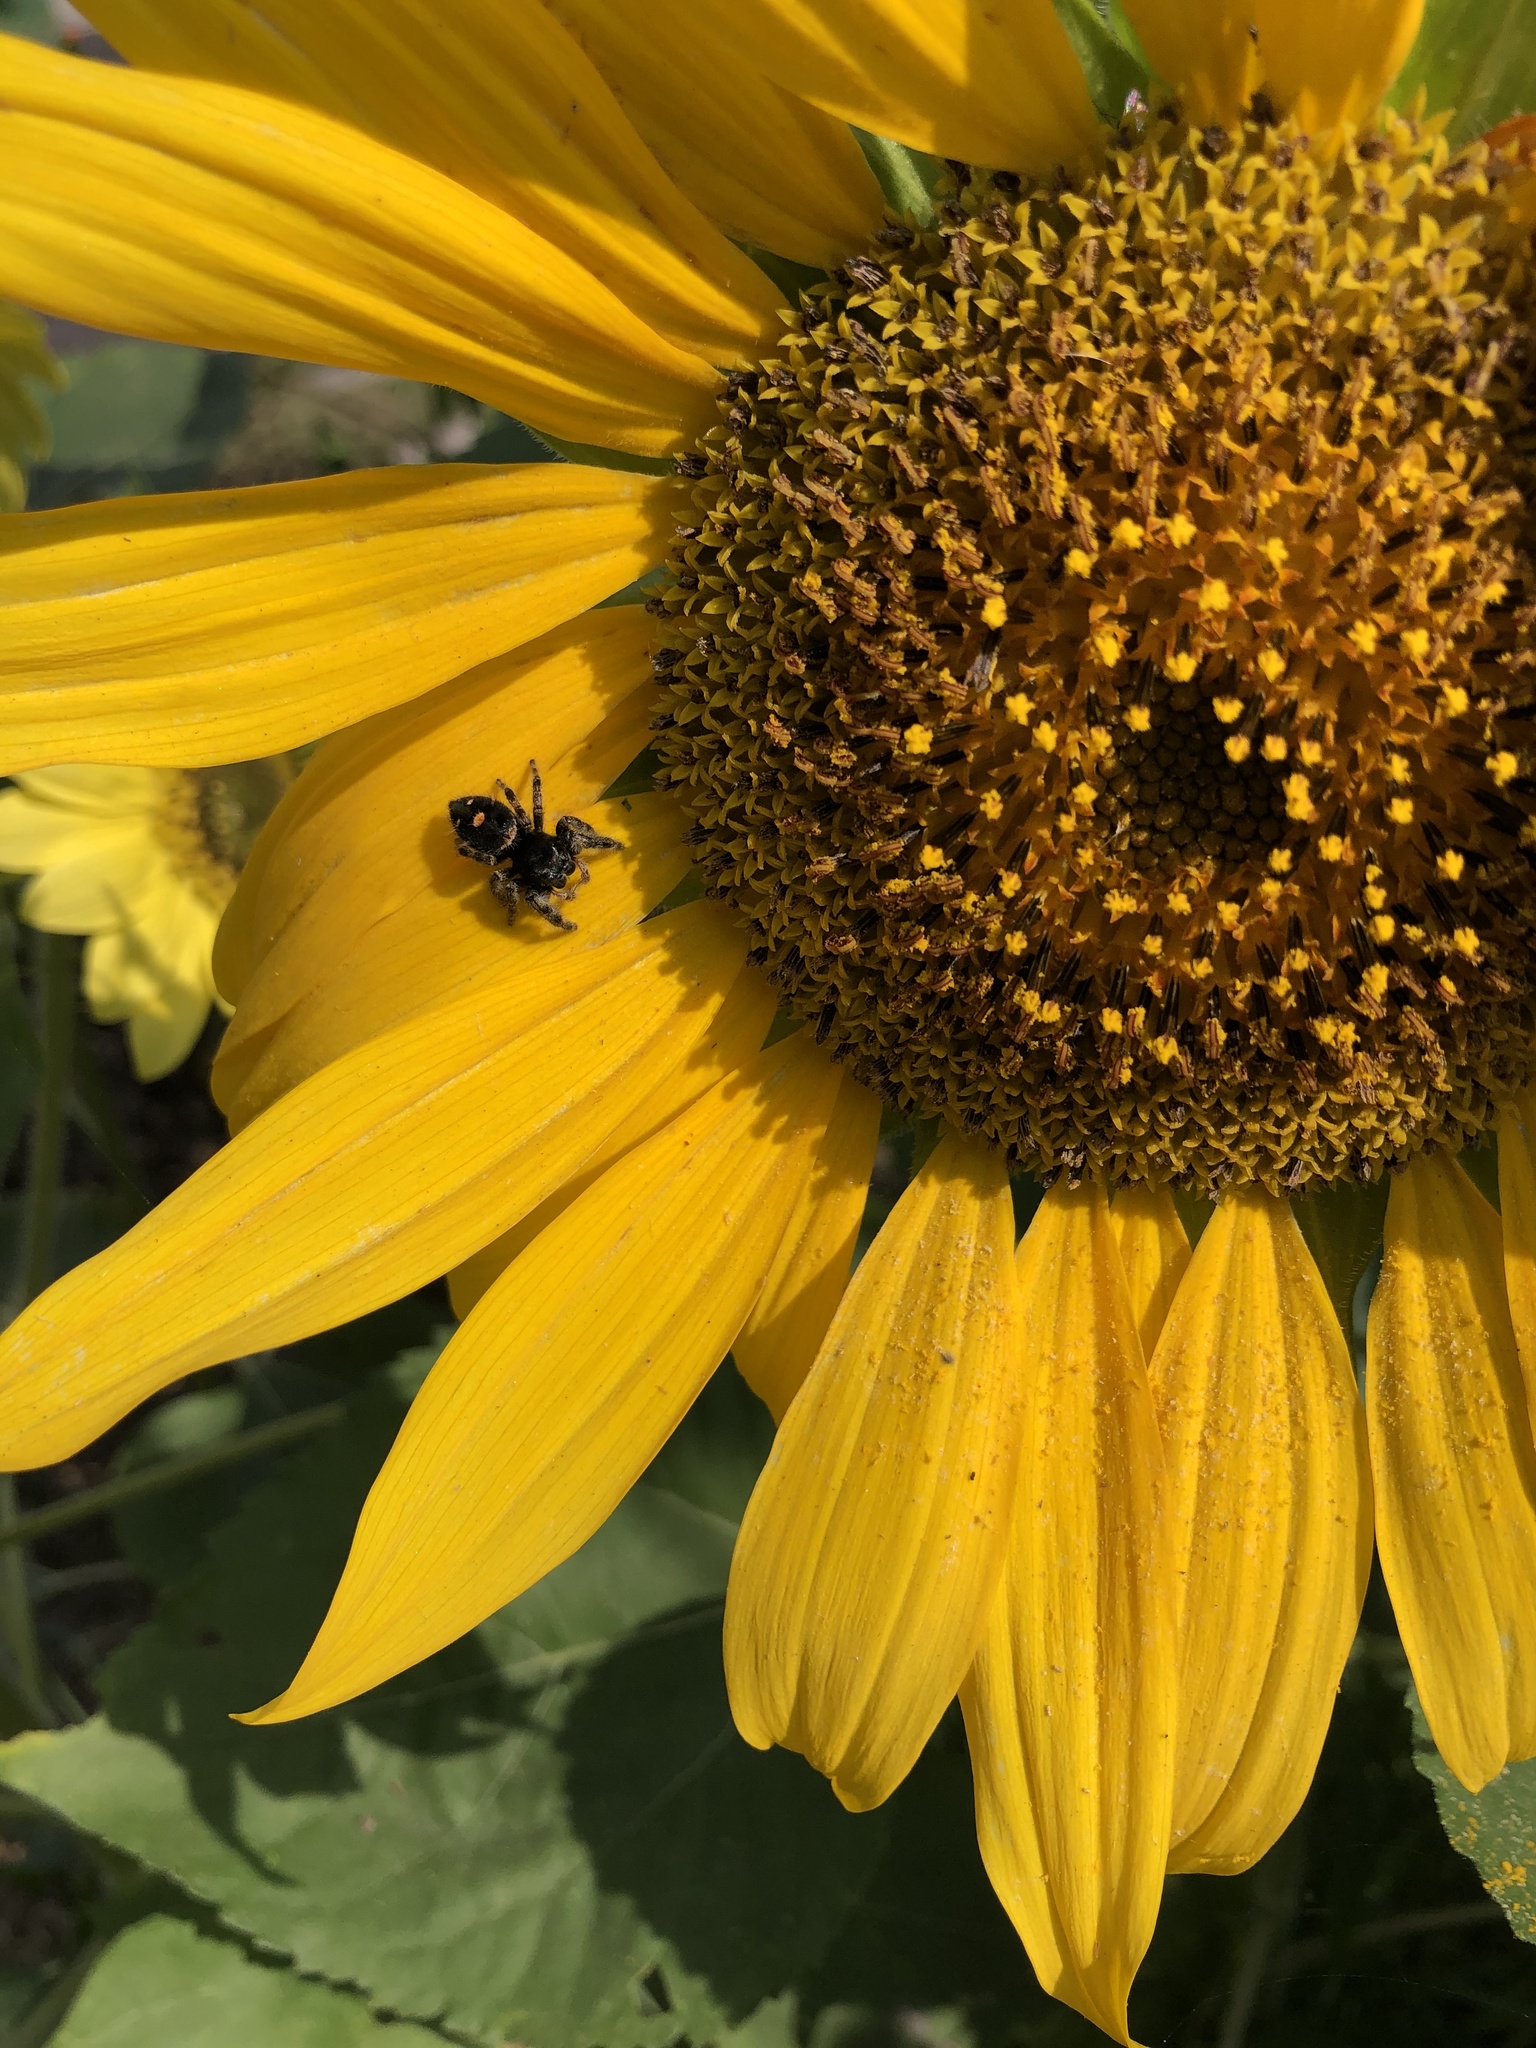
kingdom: Animalia
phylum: Arthropoda
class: Arachnida
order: Araneae
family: Salticidae
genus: Phidippus
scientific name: Phidippus audax
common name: Bold jumper
